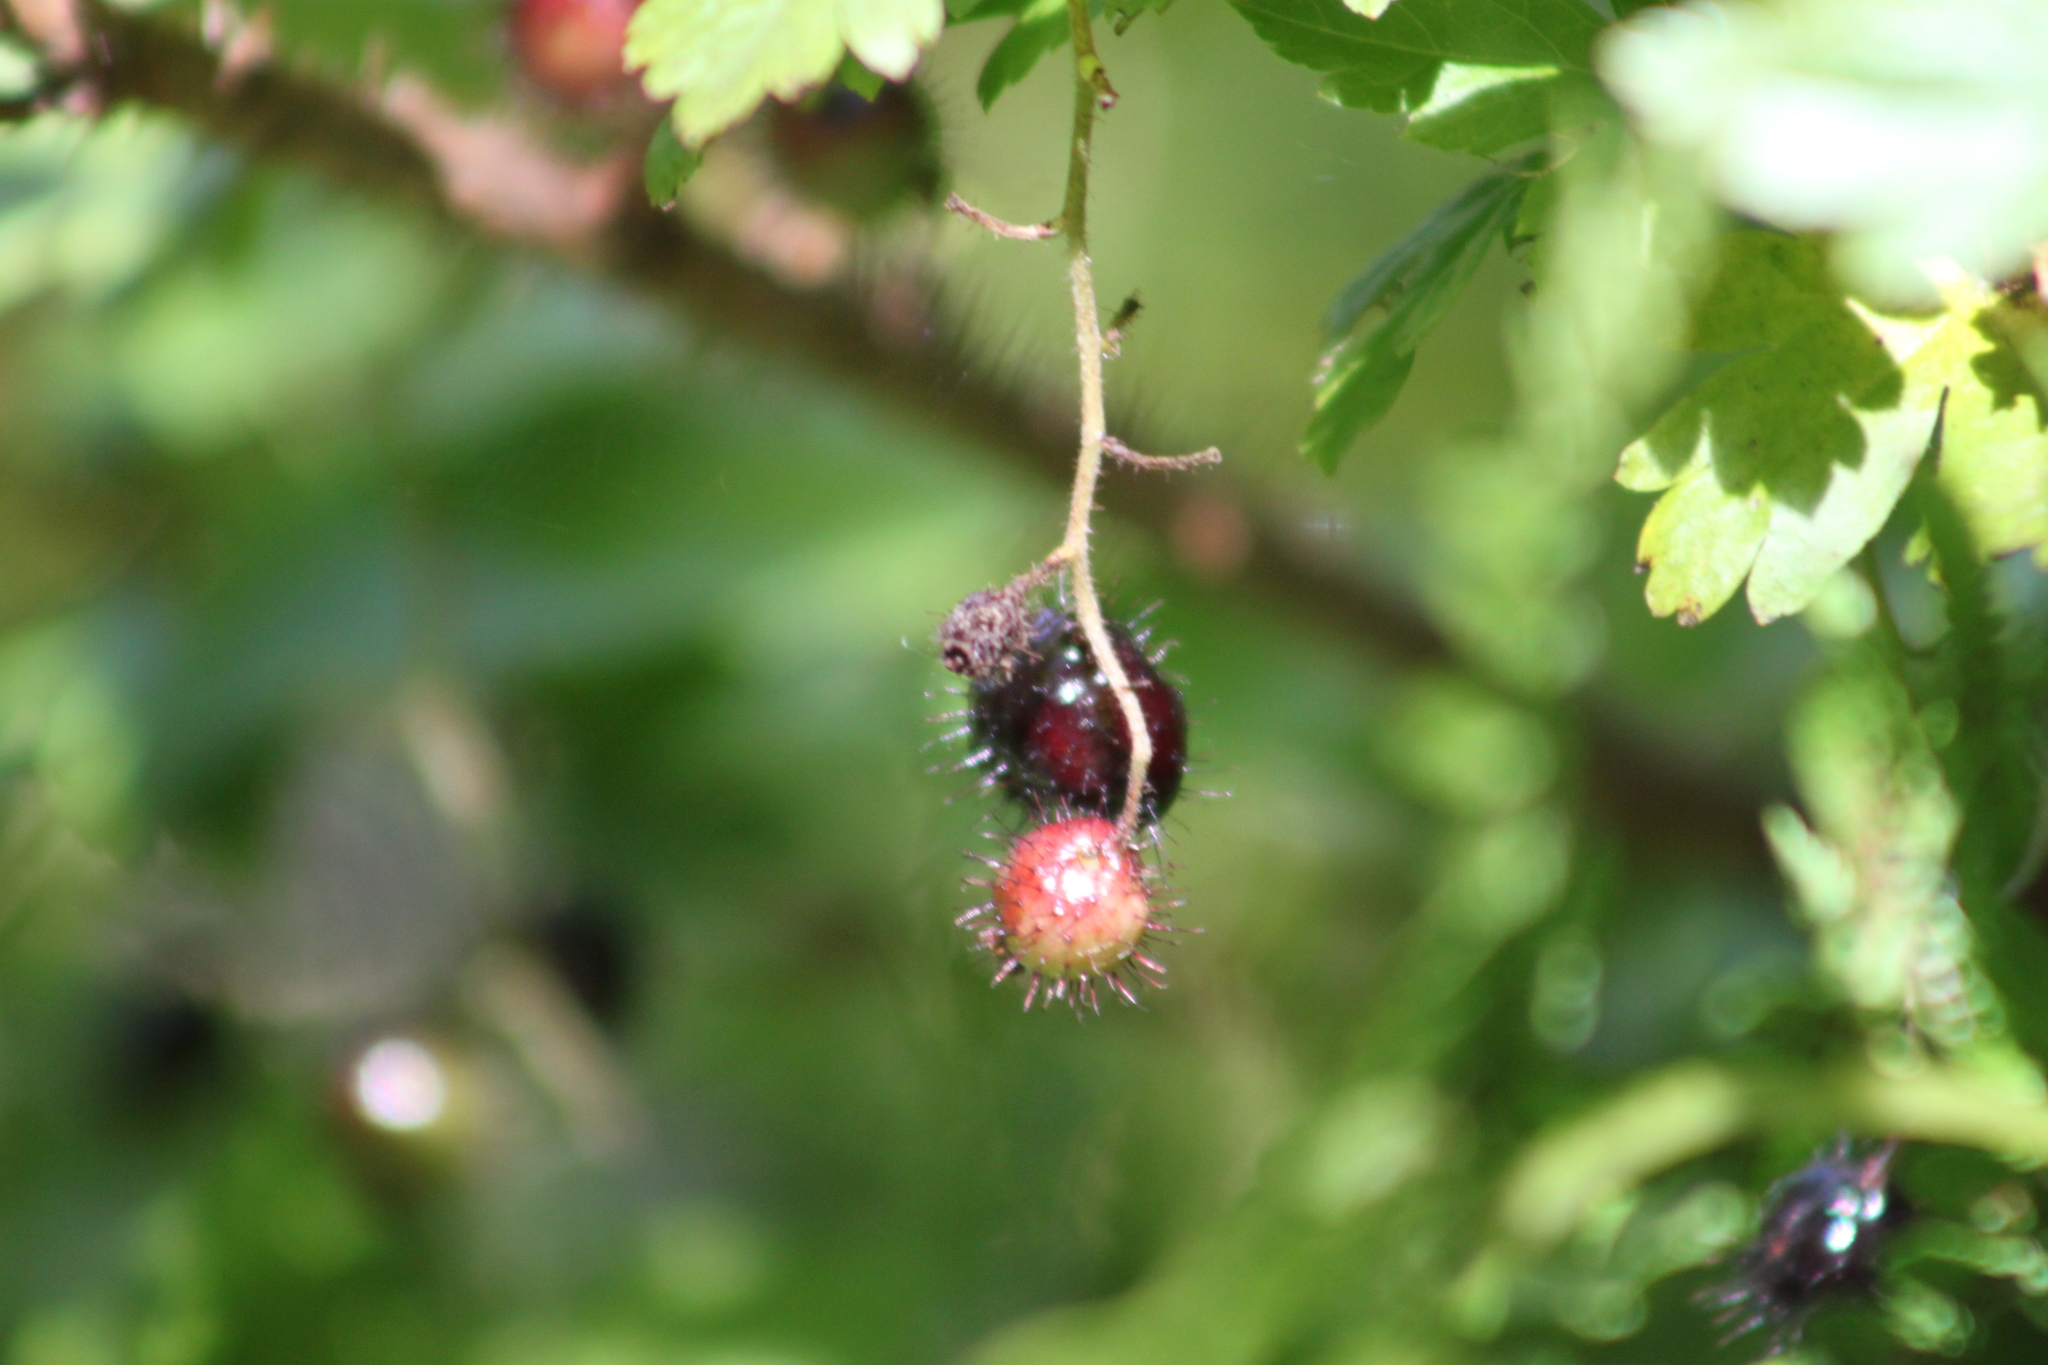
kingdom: Plantae
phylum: Tracheophyta
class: Magnoliopsida
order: Saxifragales
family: Grossulariaceae
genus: Ribes
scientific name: Ribes lacustre
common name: Black gooseberry
